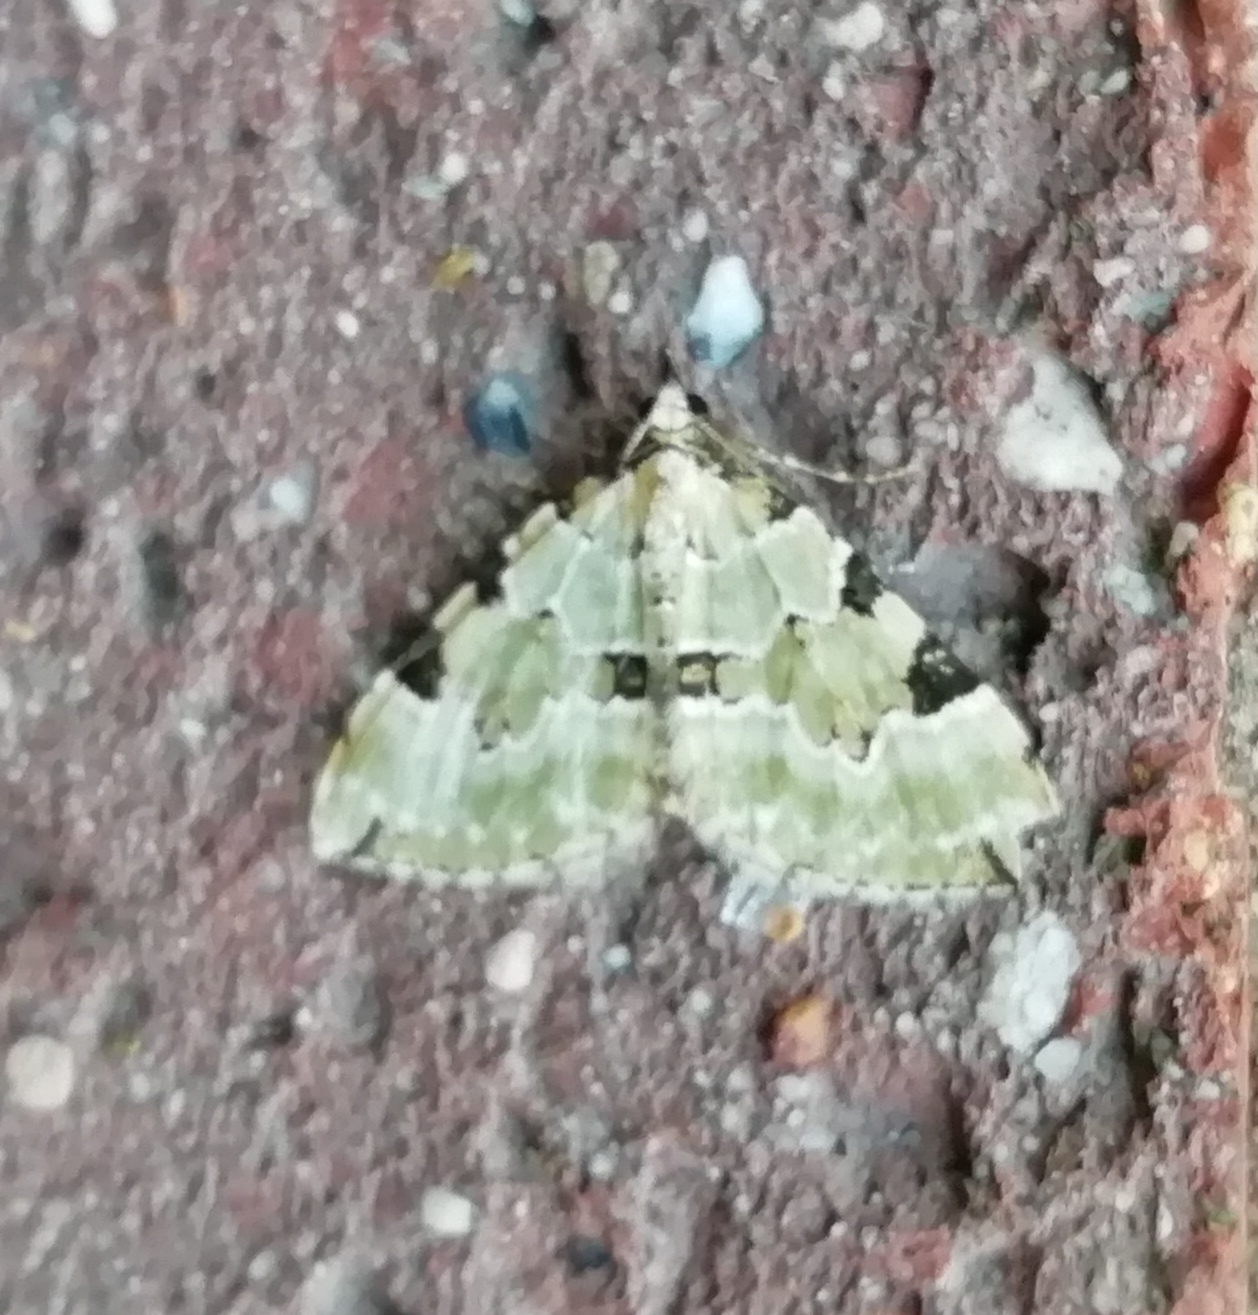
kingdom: Animalia
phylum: Arthropoda
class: Insecta
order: Lepidoptera
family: Geometridae
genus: Colostygia
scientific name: Colostygia pectinataria
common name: Green carpet
